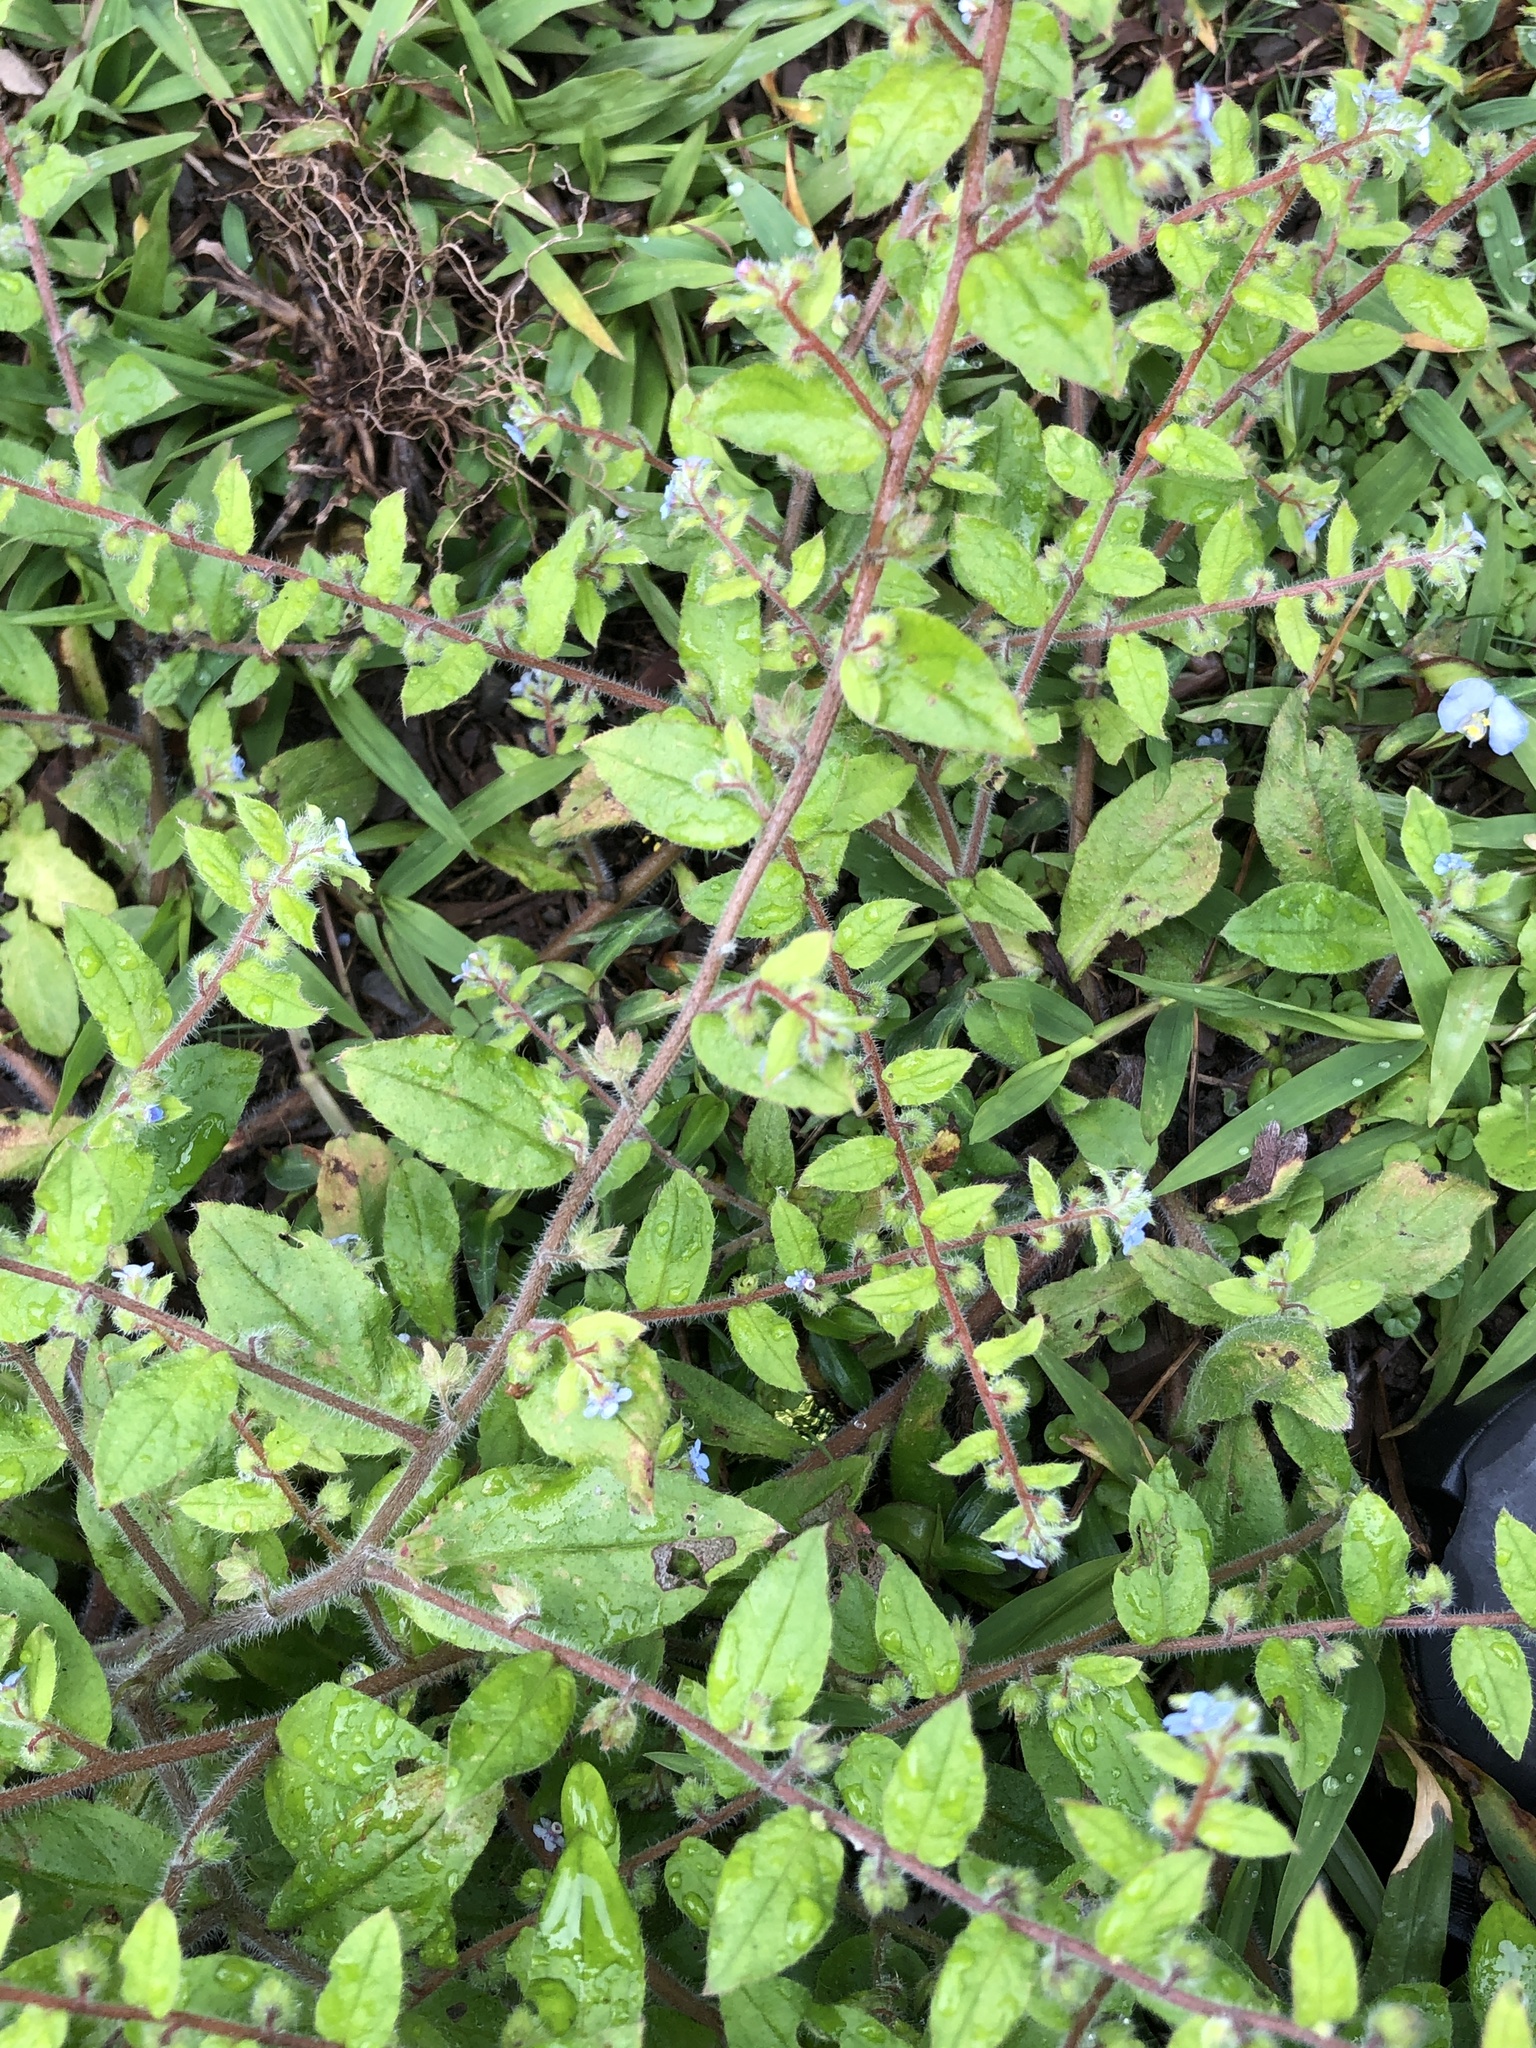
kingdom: Plantae
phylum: Tracheophyta
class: Magnoliopsida
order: Boraginales
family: Boraginaceae
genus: Thyrocarpus
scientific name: Thyrocarpus sampsonii
